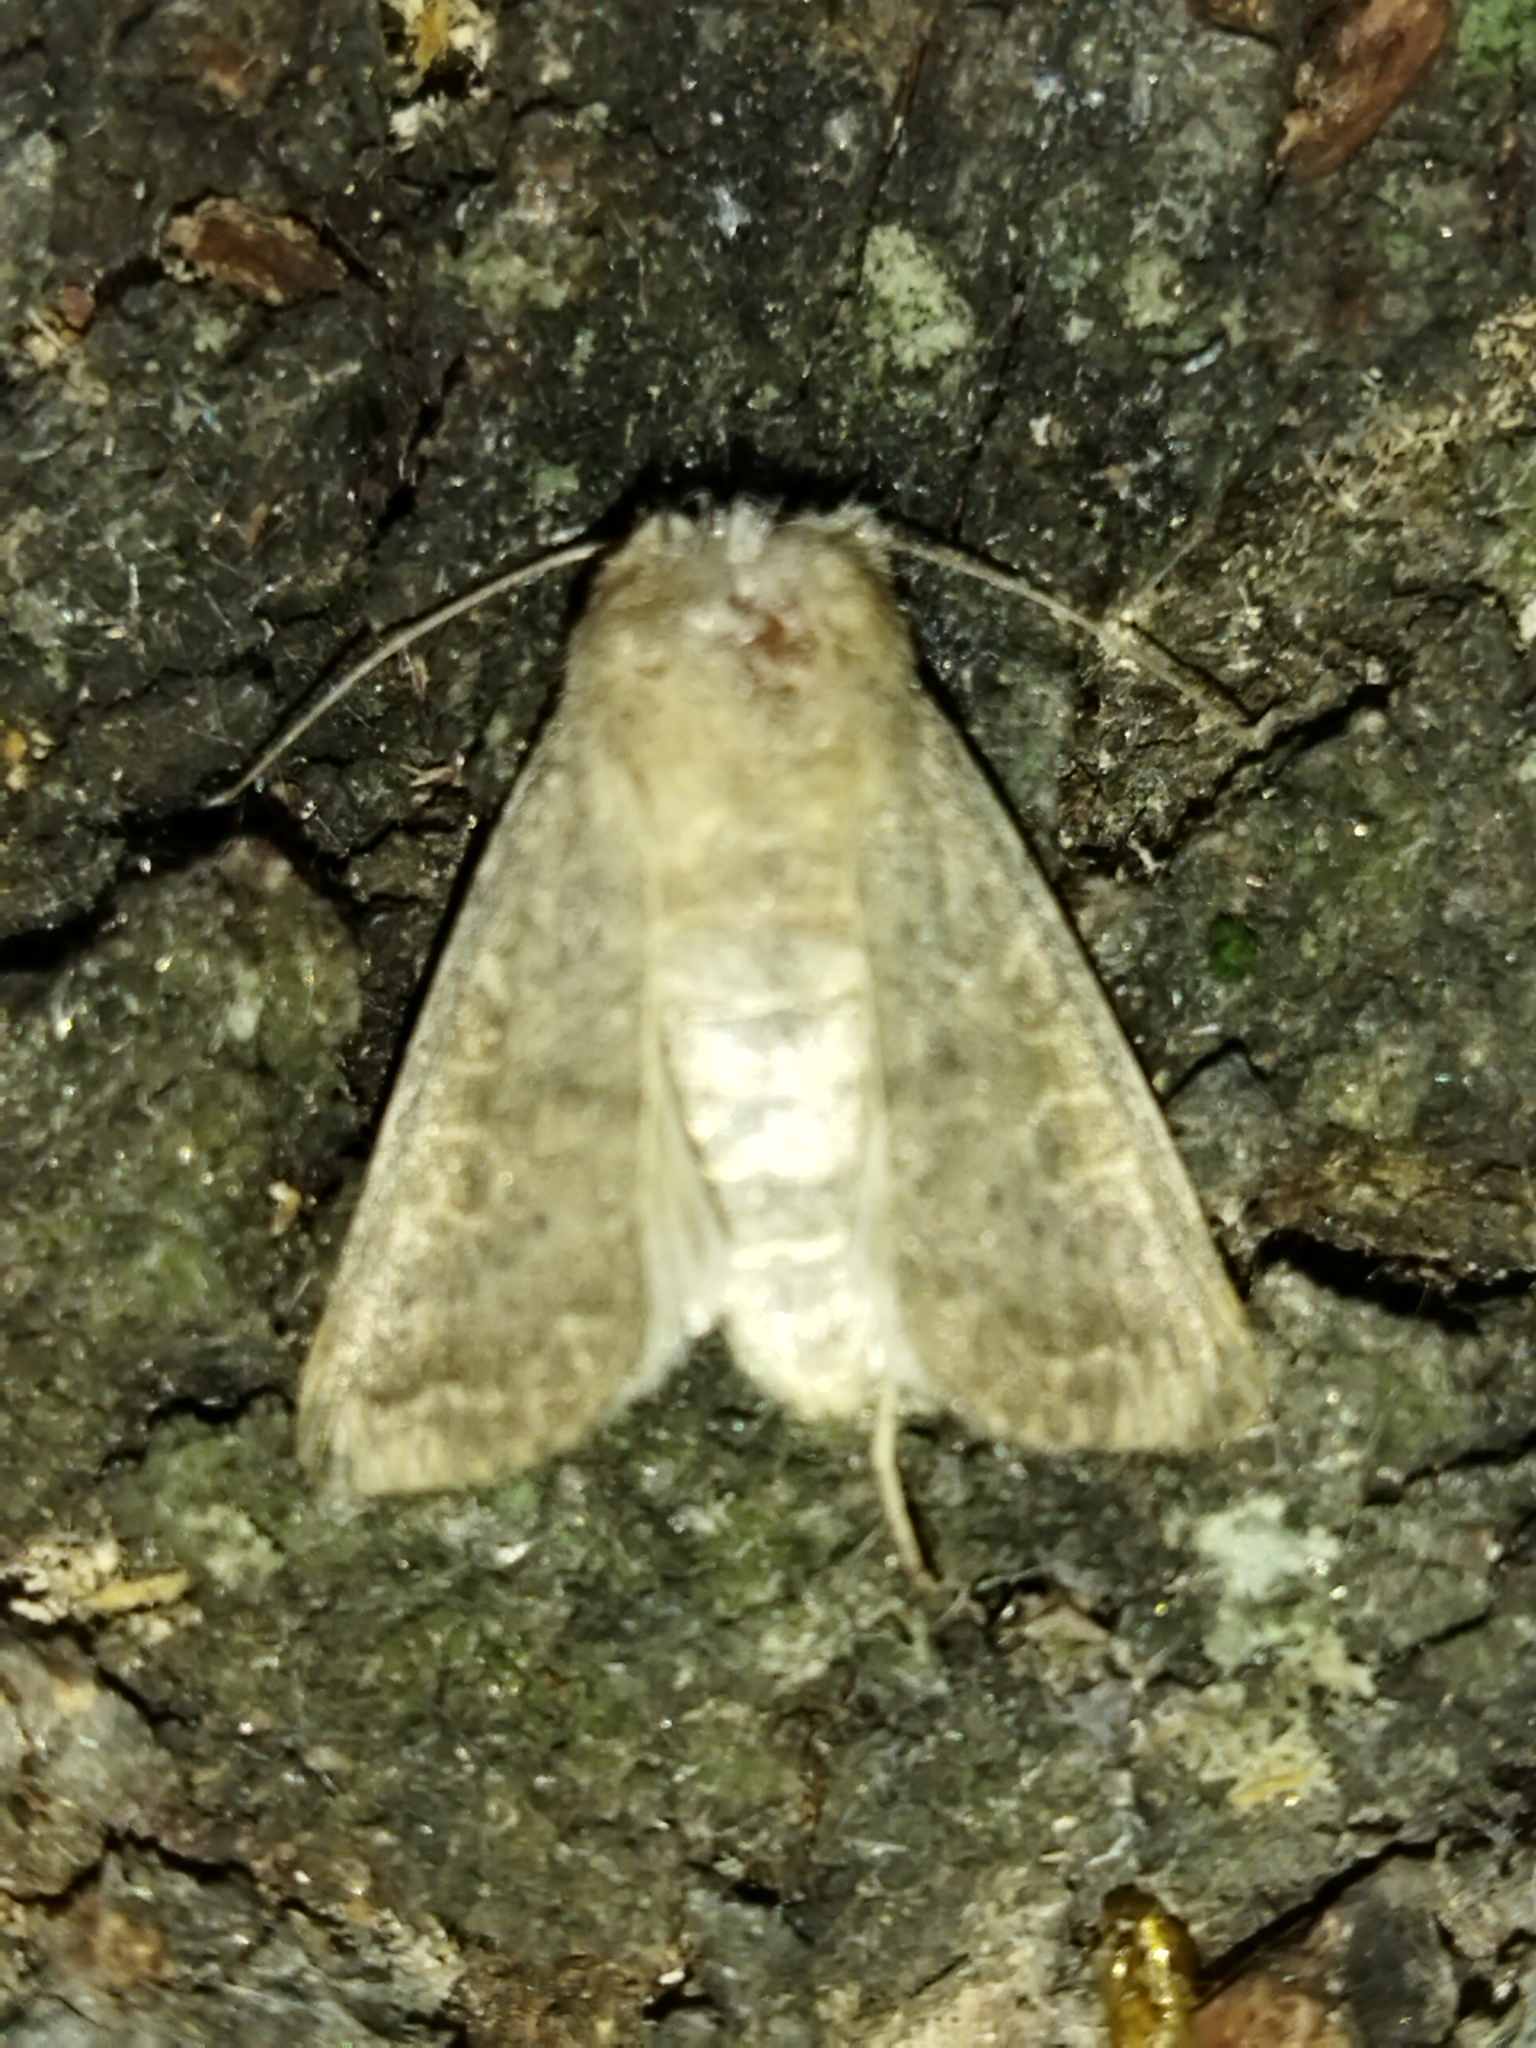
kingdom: Animalia
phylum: Arthropoda
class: Insecta
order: Lepidoptera
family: Noctuidae
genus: Hoplodrina
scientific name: Hoplodrina ambigua
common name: Vine's rustic
